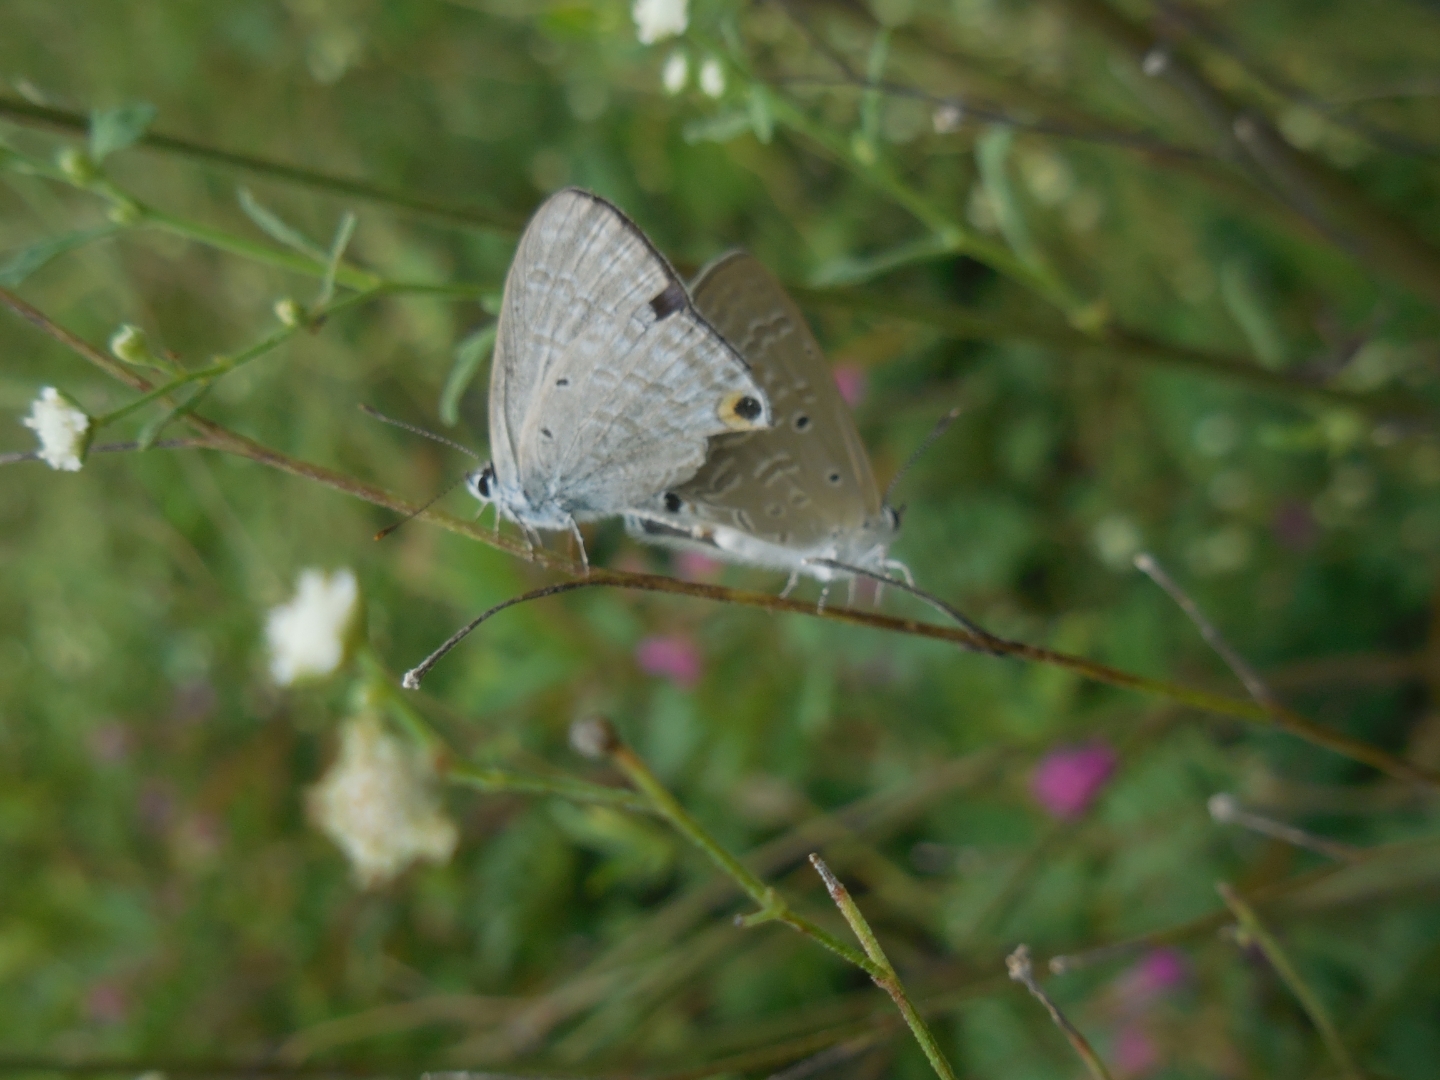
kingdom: Animalia
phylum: Arthropoda
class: Insecta
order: Lepidoptera
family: Lycaenidae
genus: Catochrysops
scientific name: Catochrysops strabo
